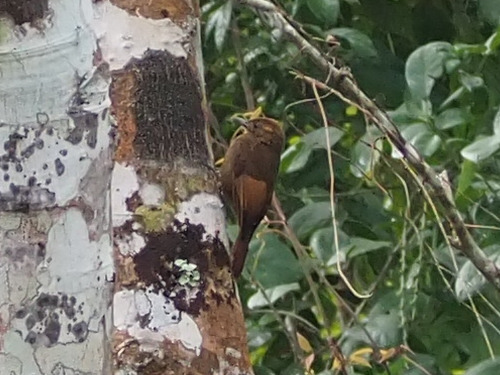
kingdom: Animalia
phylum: Chordata
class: Aves
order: Passeriformes
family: Furnariidae
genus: Dendrocincla
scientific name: Dendrocincla anabatina
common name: Tawny-winged woodcreeper
